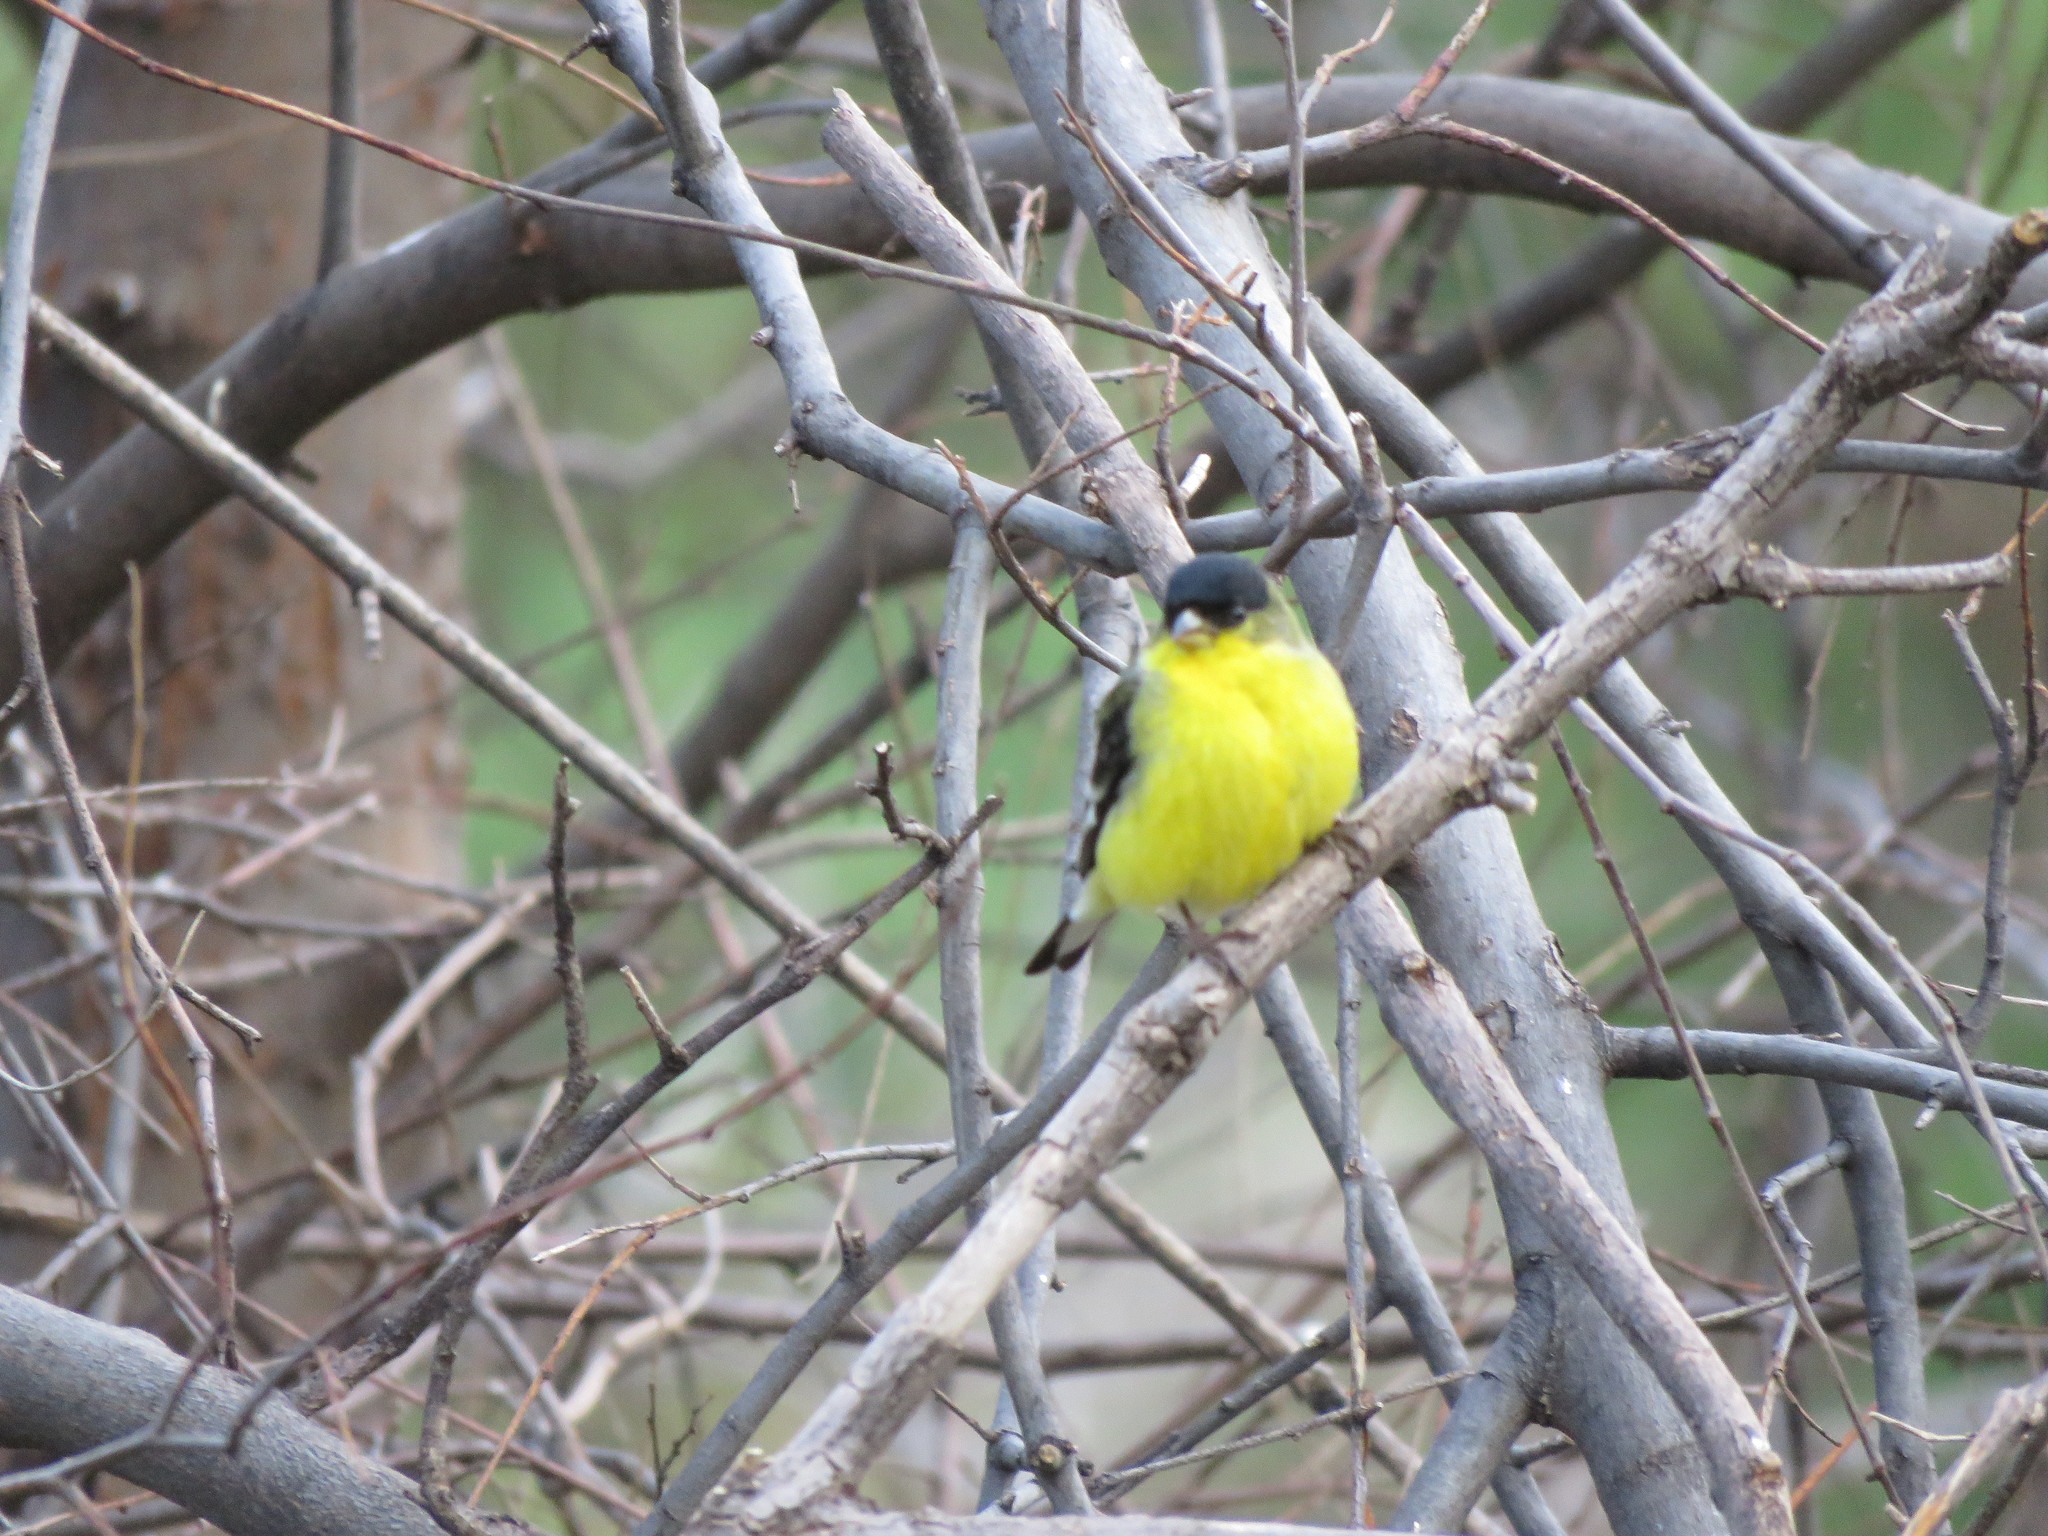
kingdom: Animalia
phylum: Chordata
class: Aves
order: Passeriformes
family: Fringillidae
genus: Spinus
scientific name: Spinus psaltria
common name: Lesser goldfinch
